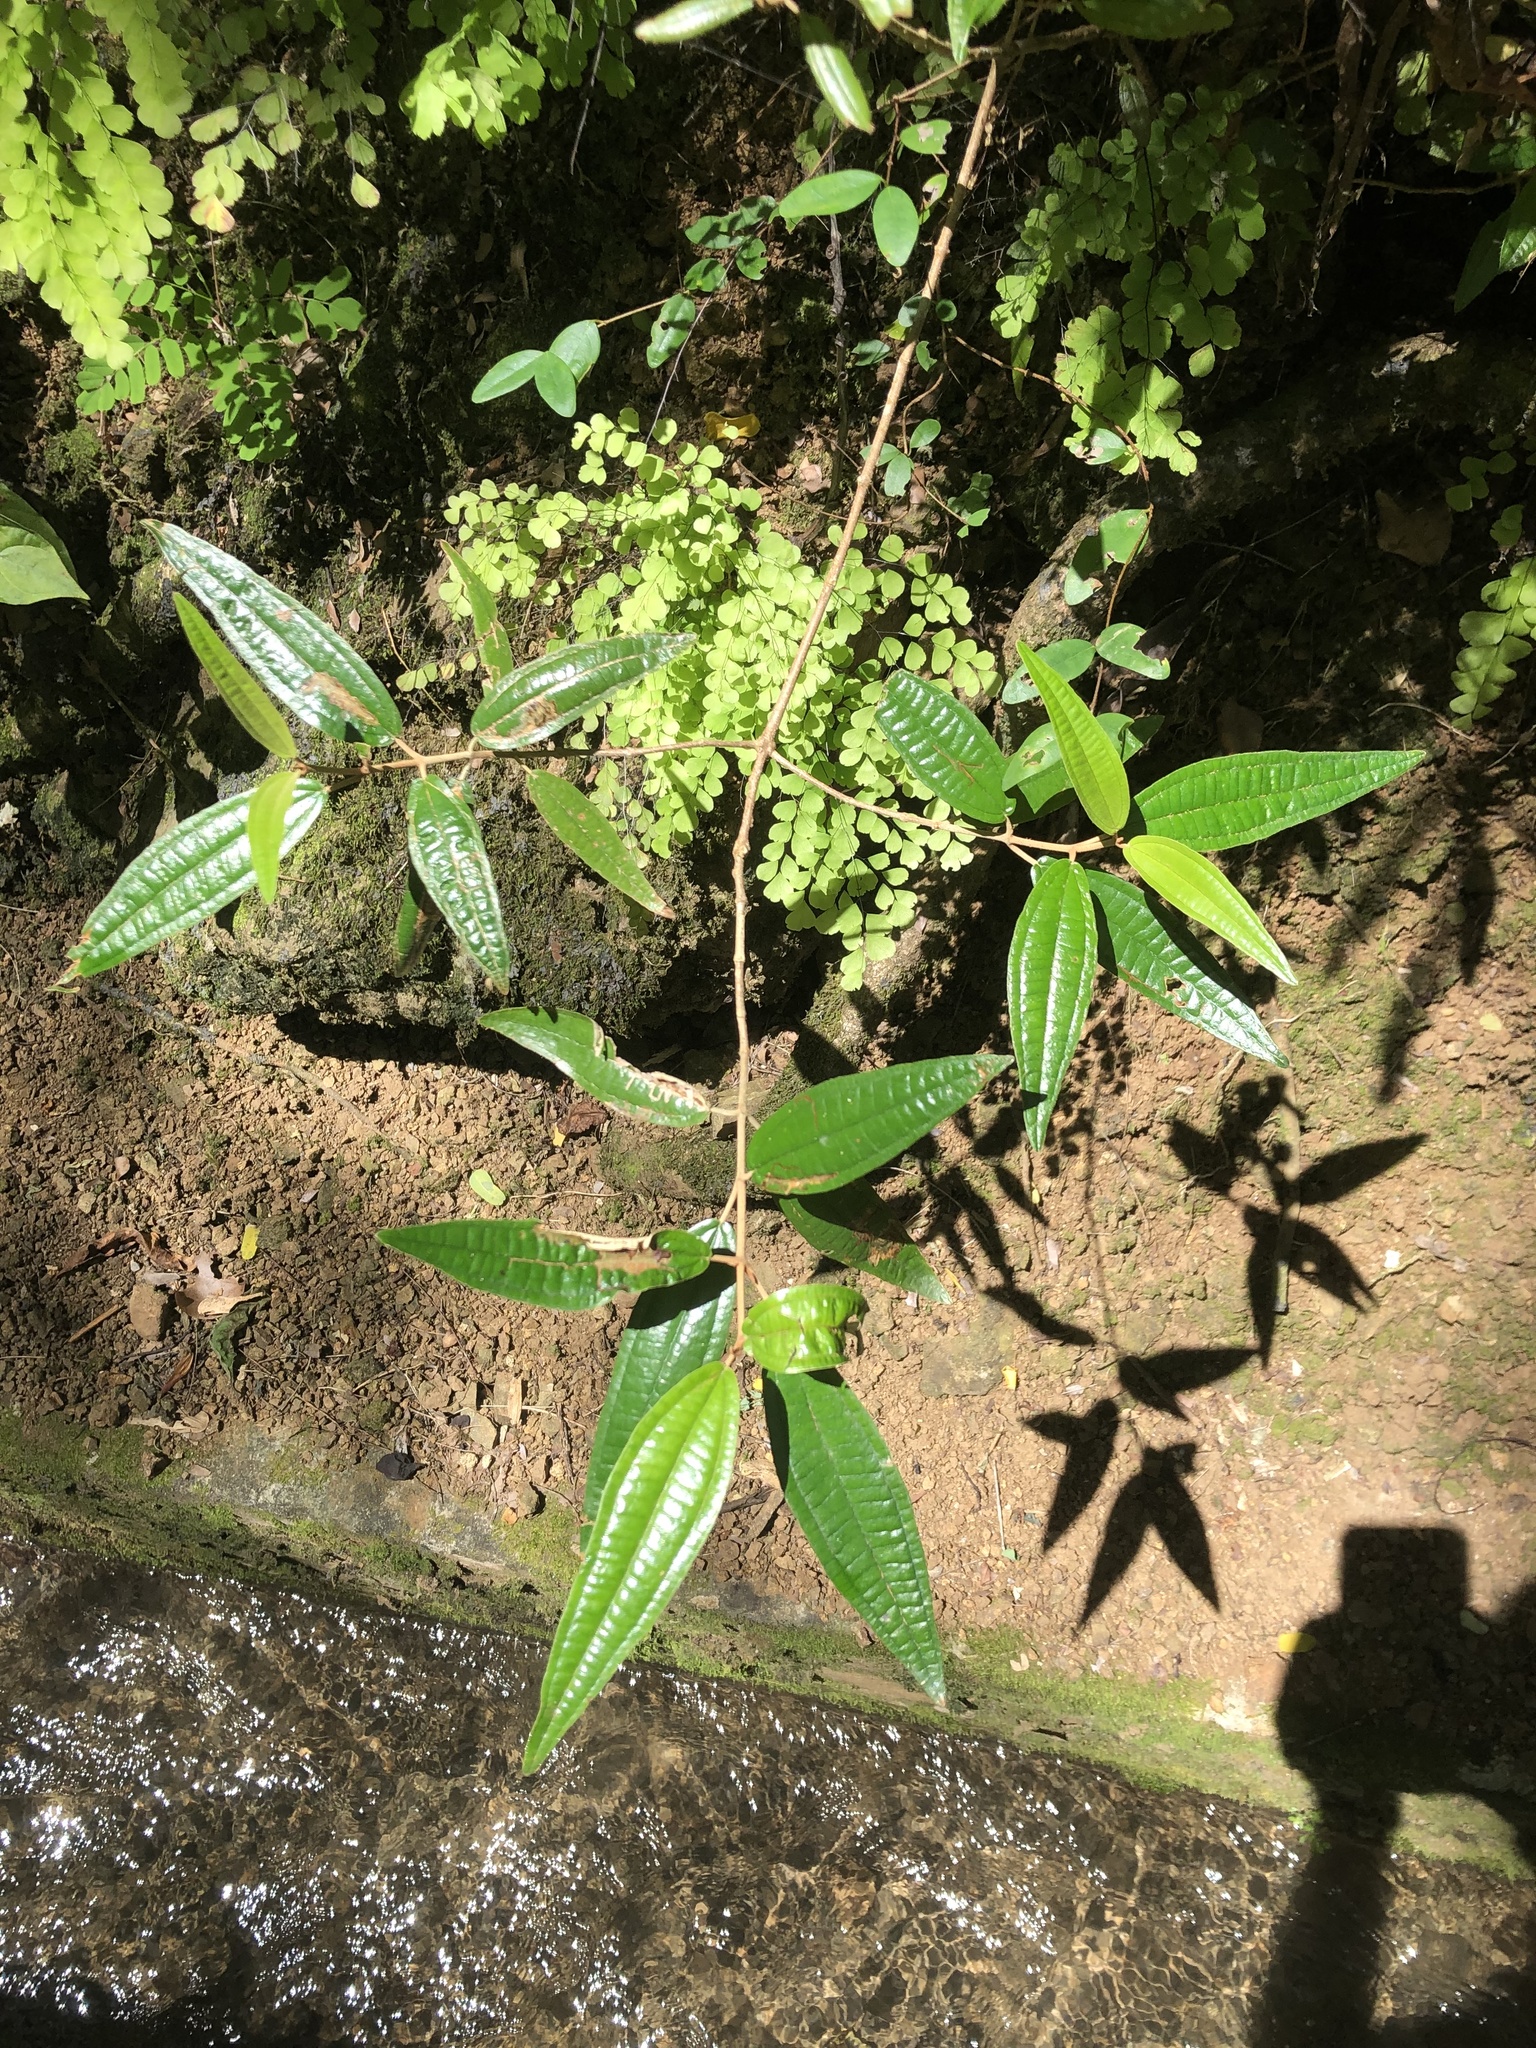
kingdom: Plantae
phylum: Tracheophyta
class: Magnoliopsida
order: Myrtales
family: Melastomataceae
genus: Miconia
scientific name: Miconia elaeagnoides
